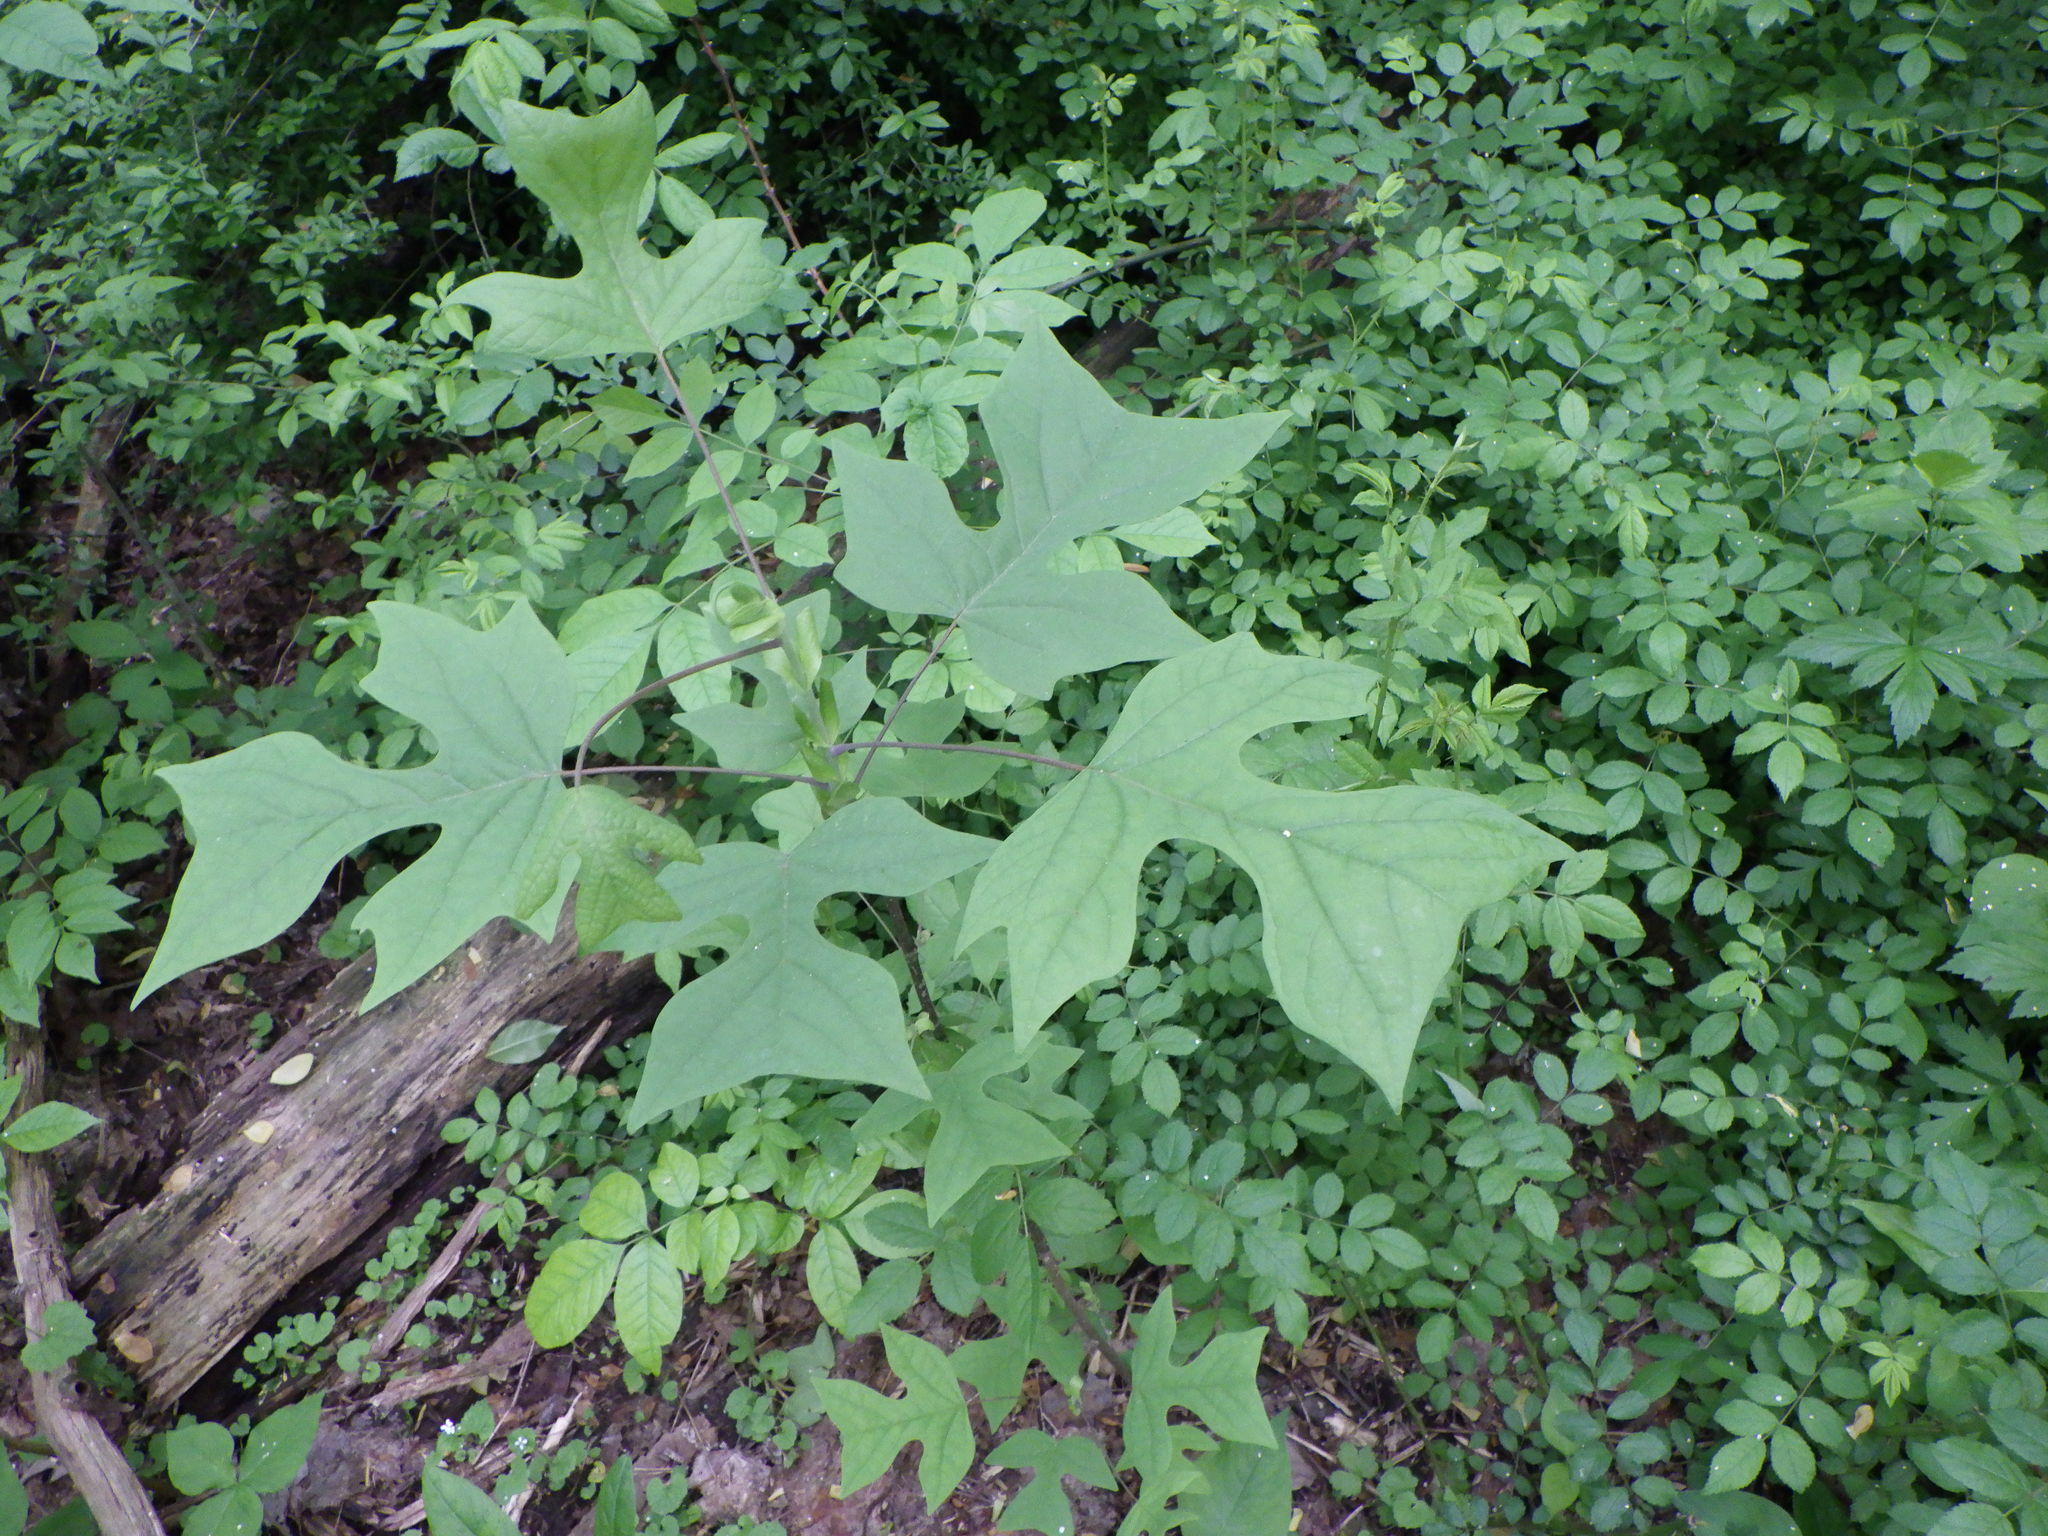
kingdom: Plantae
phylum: Tracheophyta
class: Magnoliopsida
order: Magnoliales
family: Magnoliaceae
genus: Liriodendron
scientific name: Liriodendron tulipifera
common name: Tulip tree
